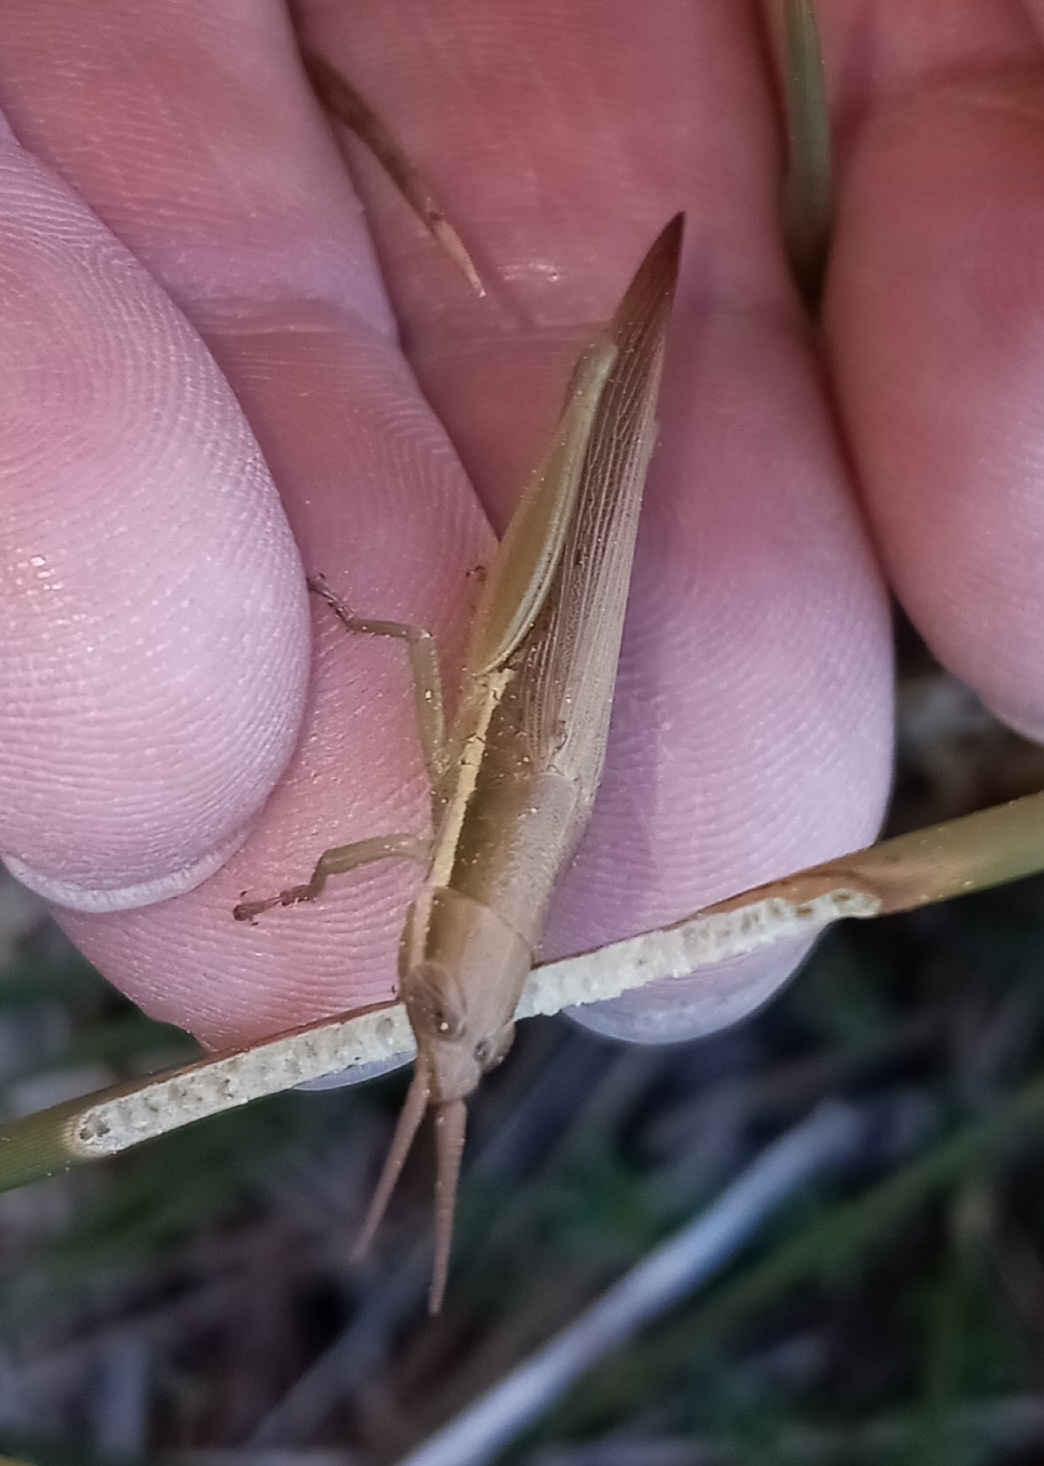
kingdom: Animalia
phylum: Arthropoda
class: Insecta
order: Orthoptera
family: Acrididae
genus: Leptysma
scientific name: Leptysma marginicollis
